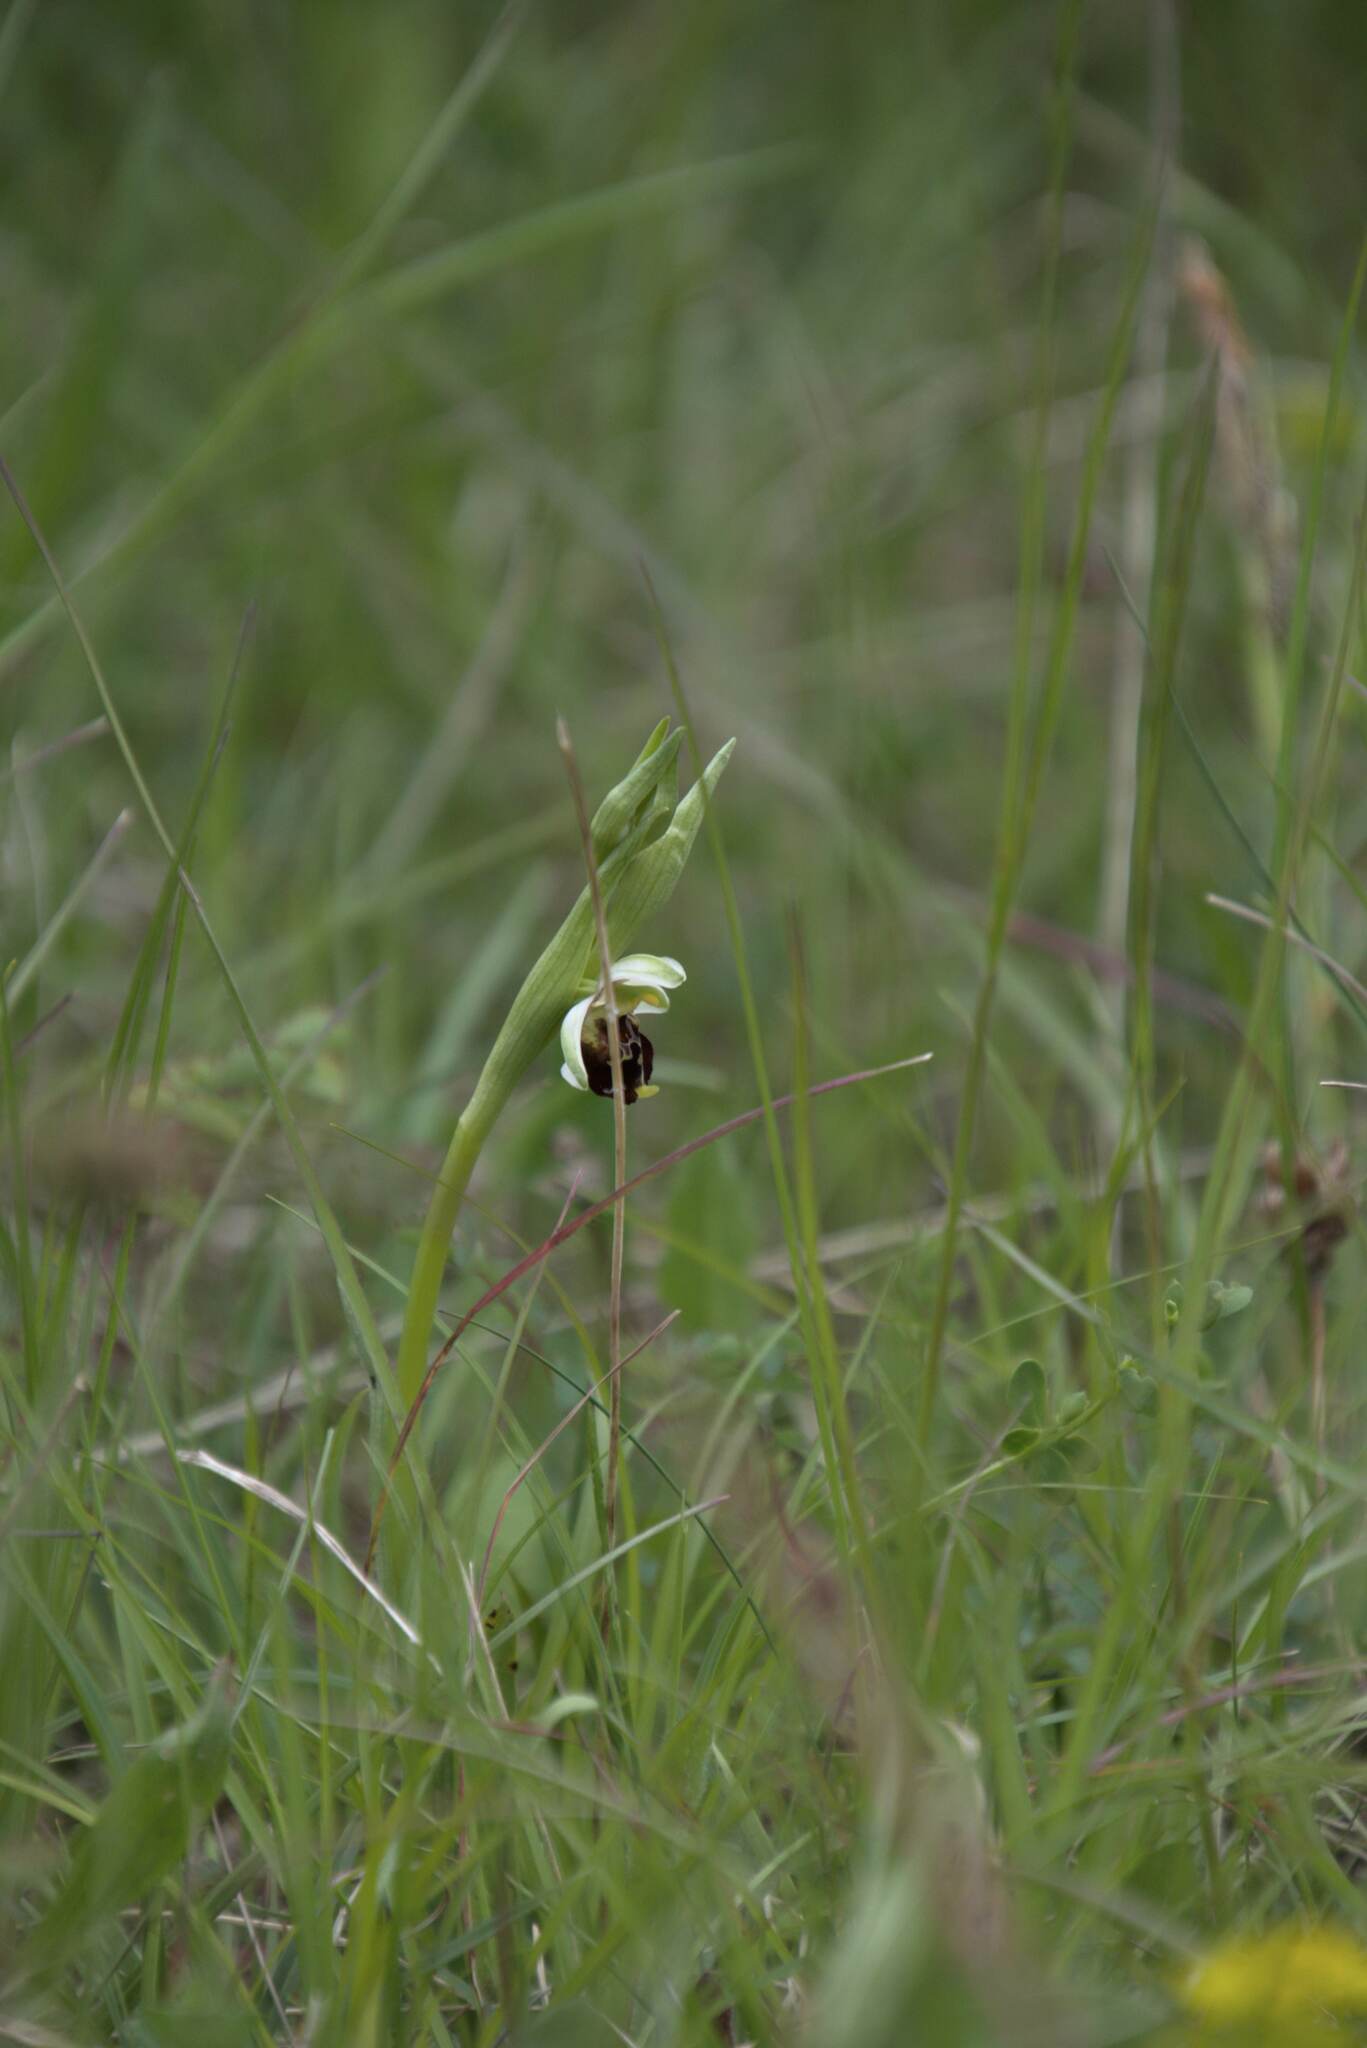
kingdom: Plantae
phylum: Tracheophyta
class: Liliopsida
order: Asparagales
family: Orchidaceae
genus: Ophrys
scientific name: Ophrys holosericea
